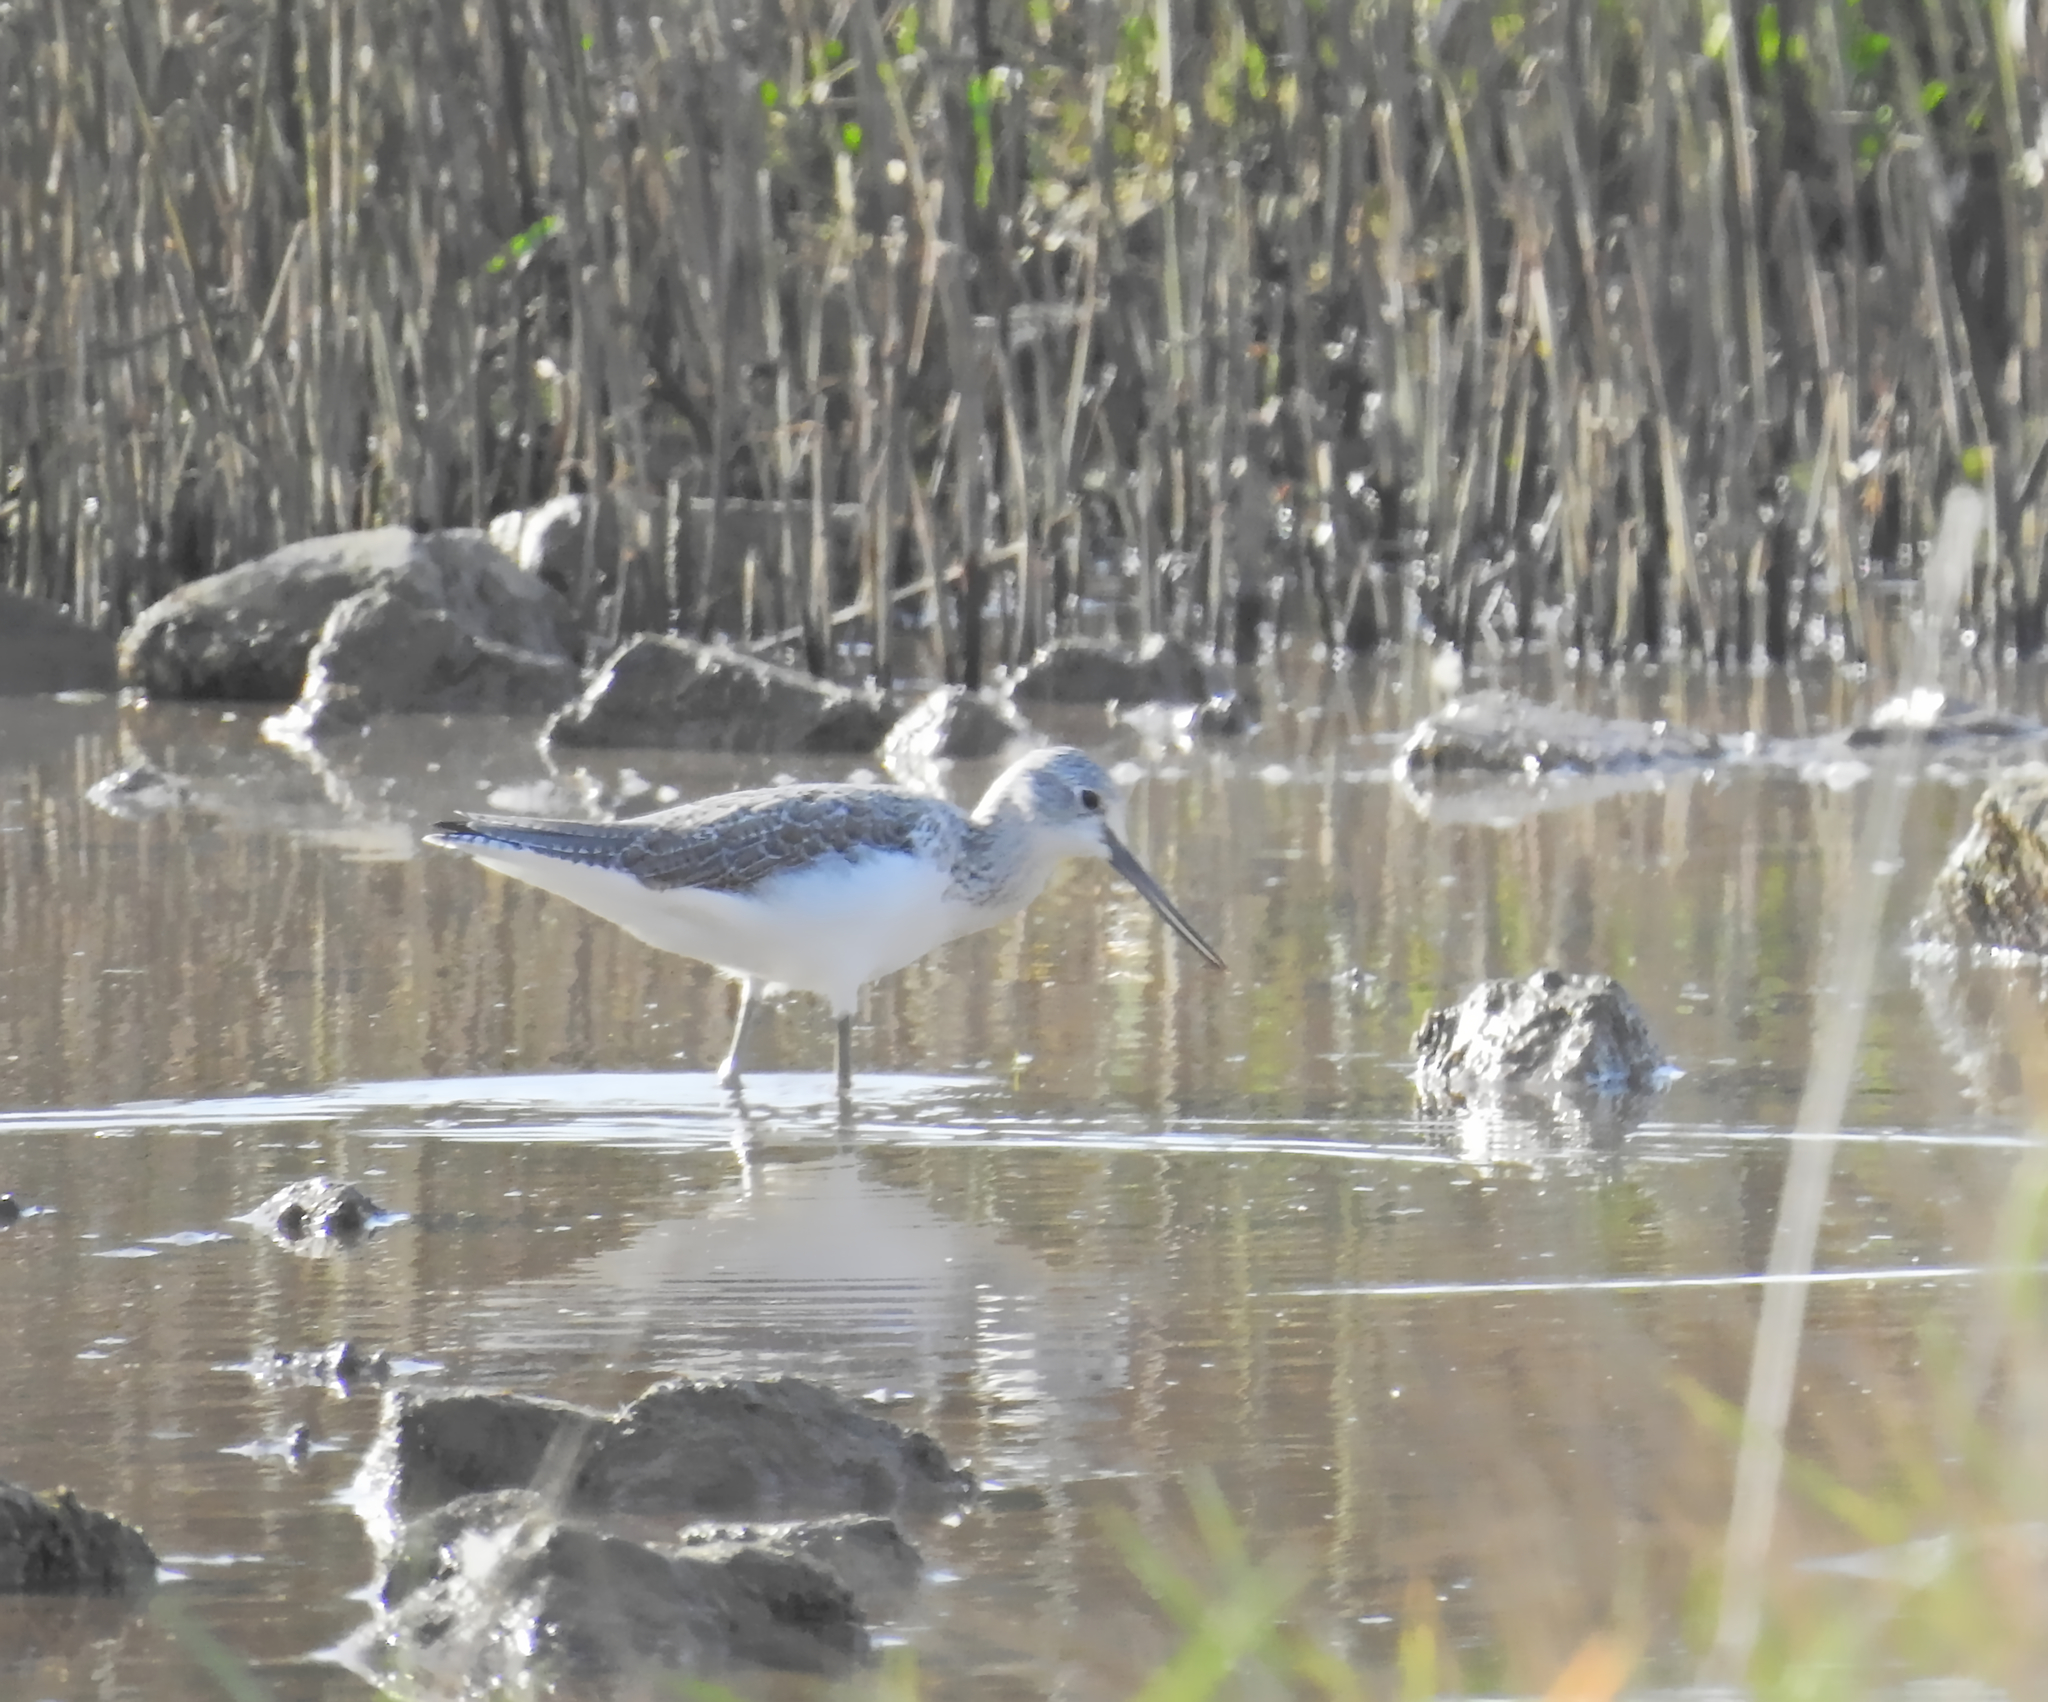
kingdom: Animalia
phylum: Chordata
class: Aves
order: Charadriiformes
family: Scolopacidae
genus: Tringa
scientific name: Tringa nebularia
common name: Common greenshank
